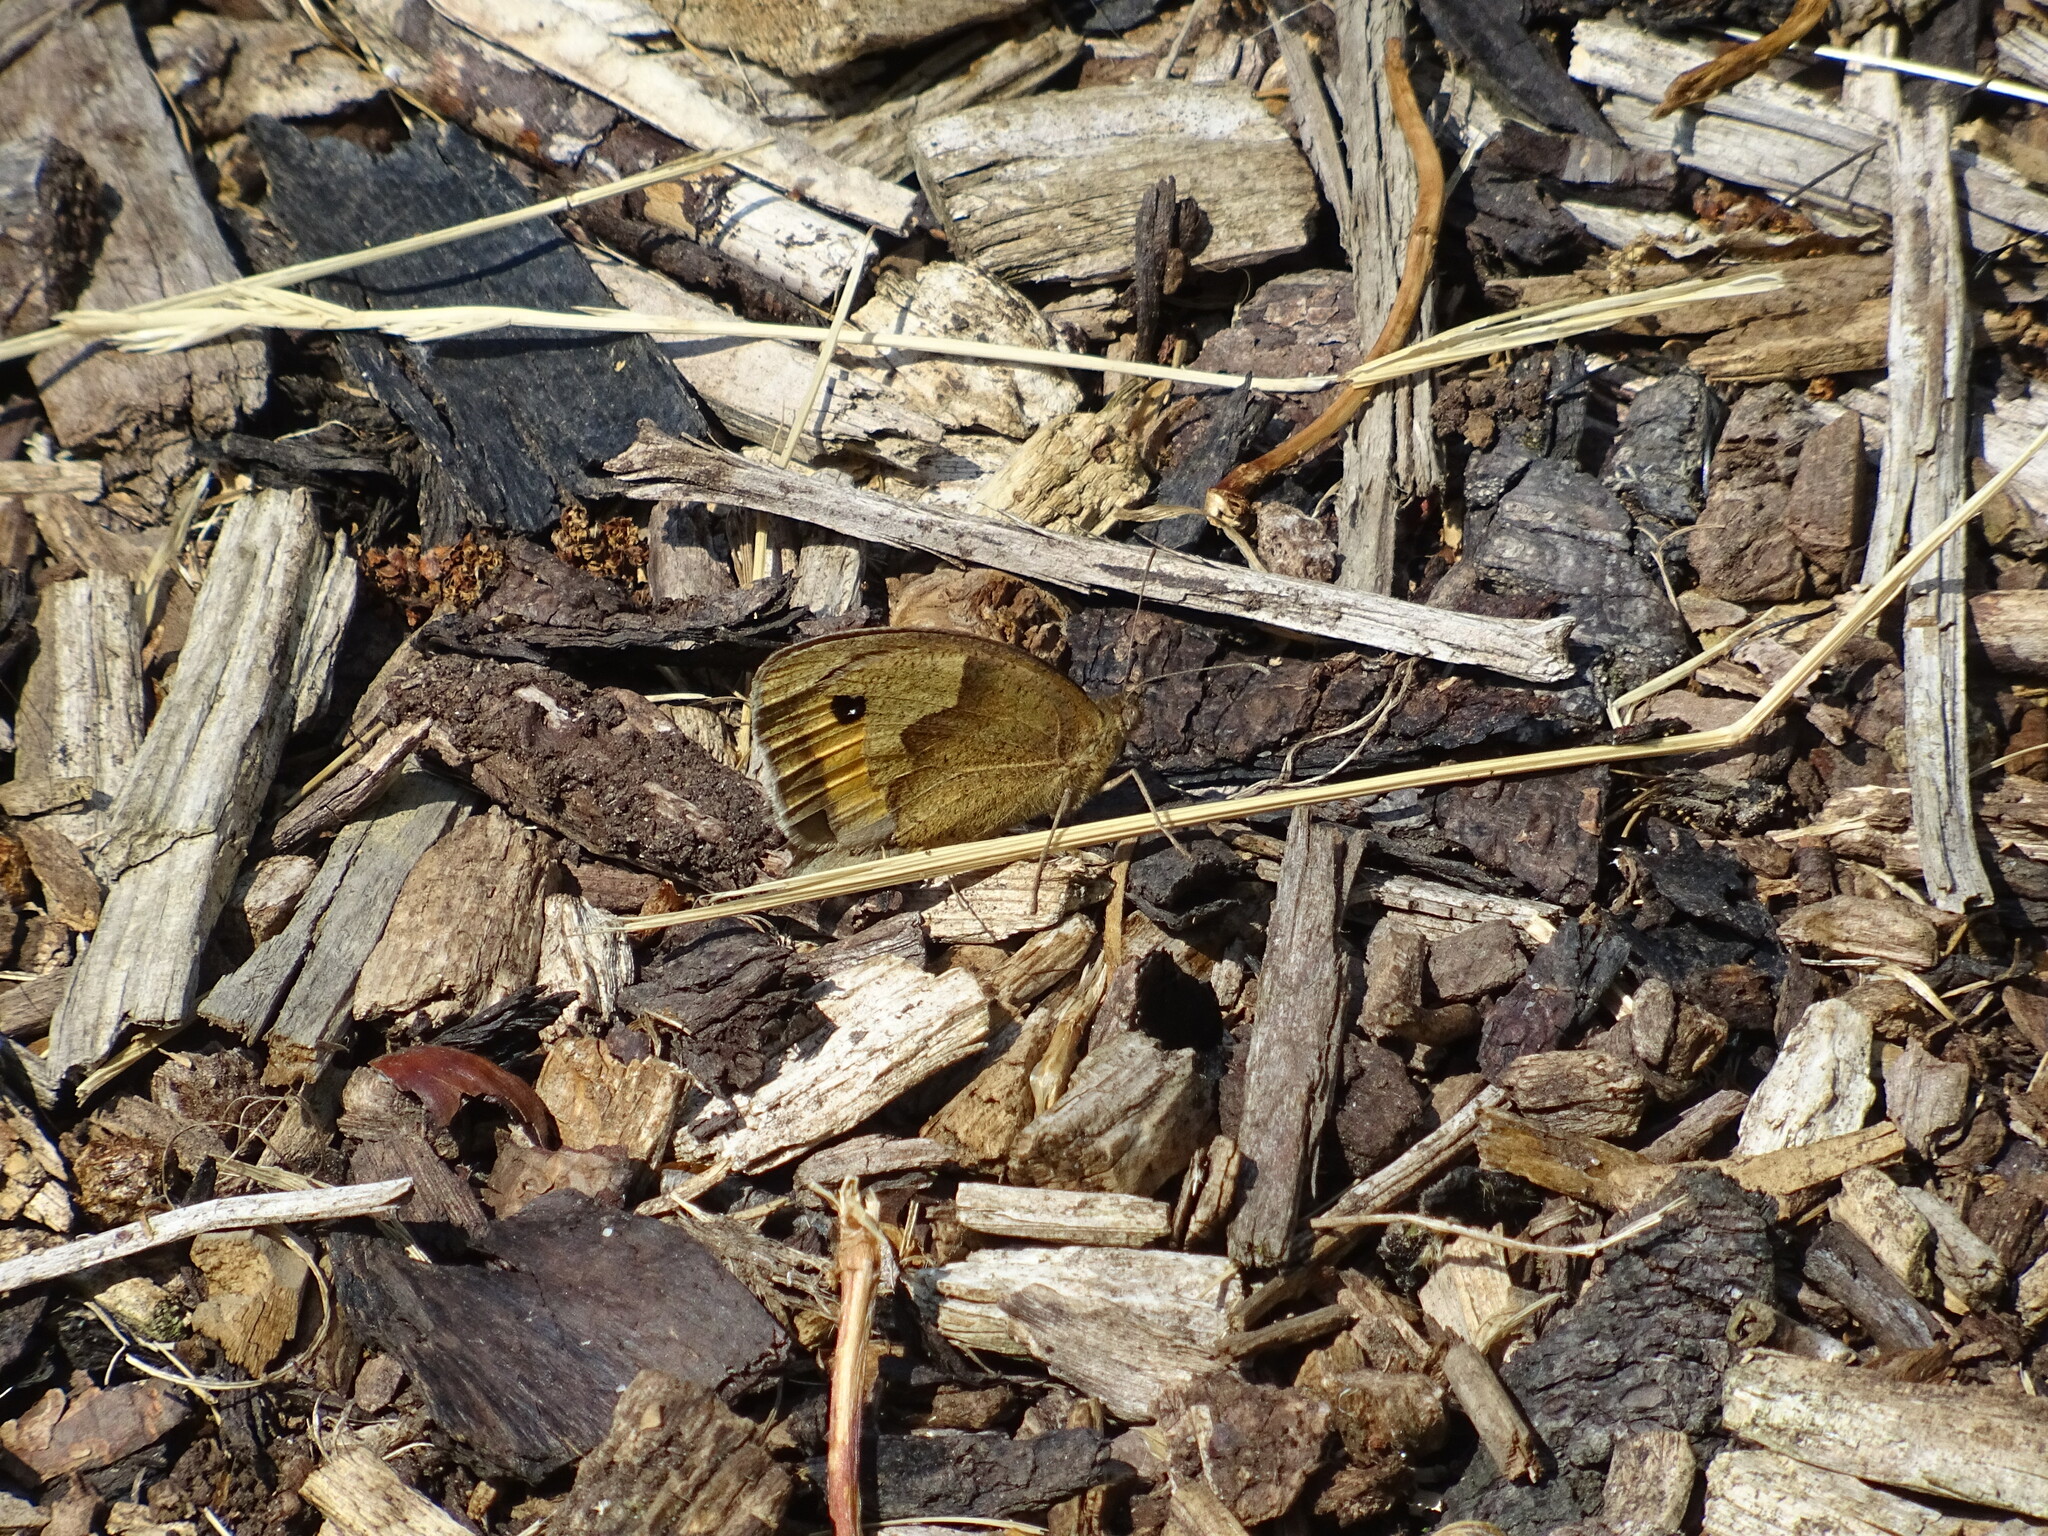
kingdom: Animalia
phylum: Arthropoda
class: Insecta
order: Lepidoptera
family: Nymphalidae
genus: Maniola
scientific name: Maniola jurtina
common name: Meadow brown
